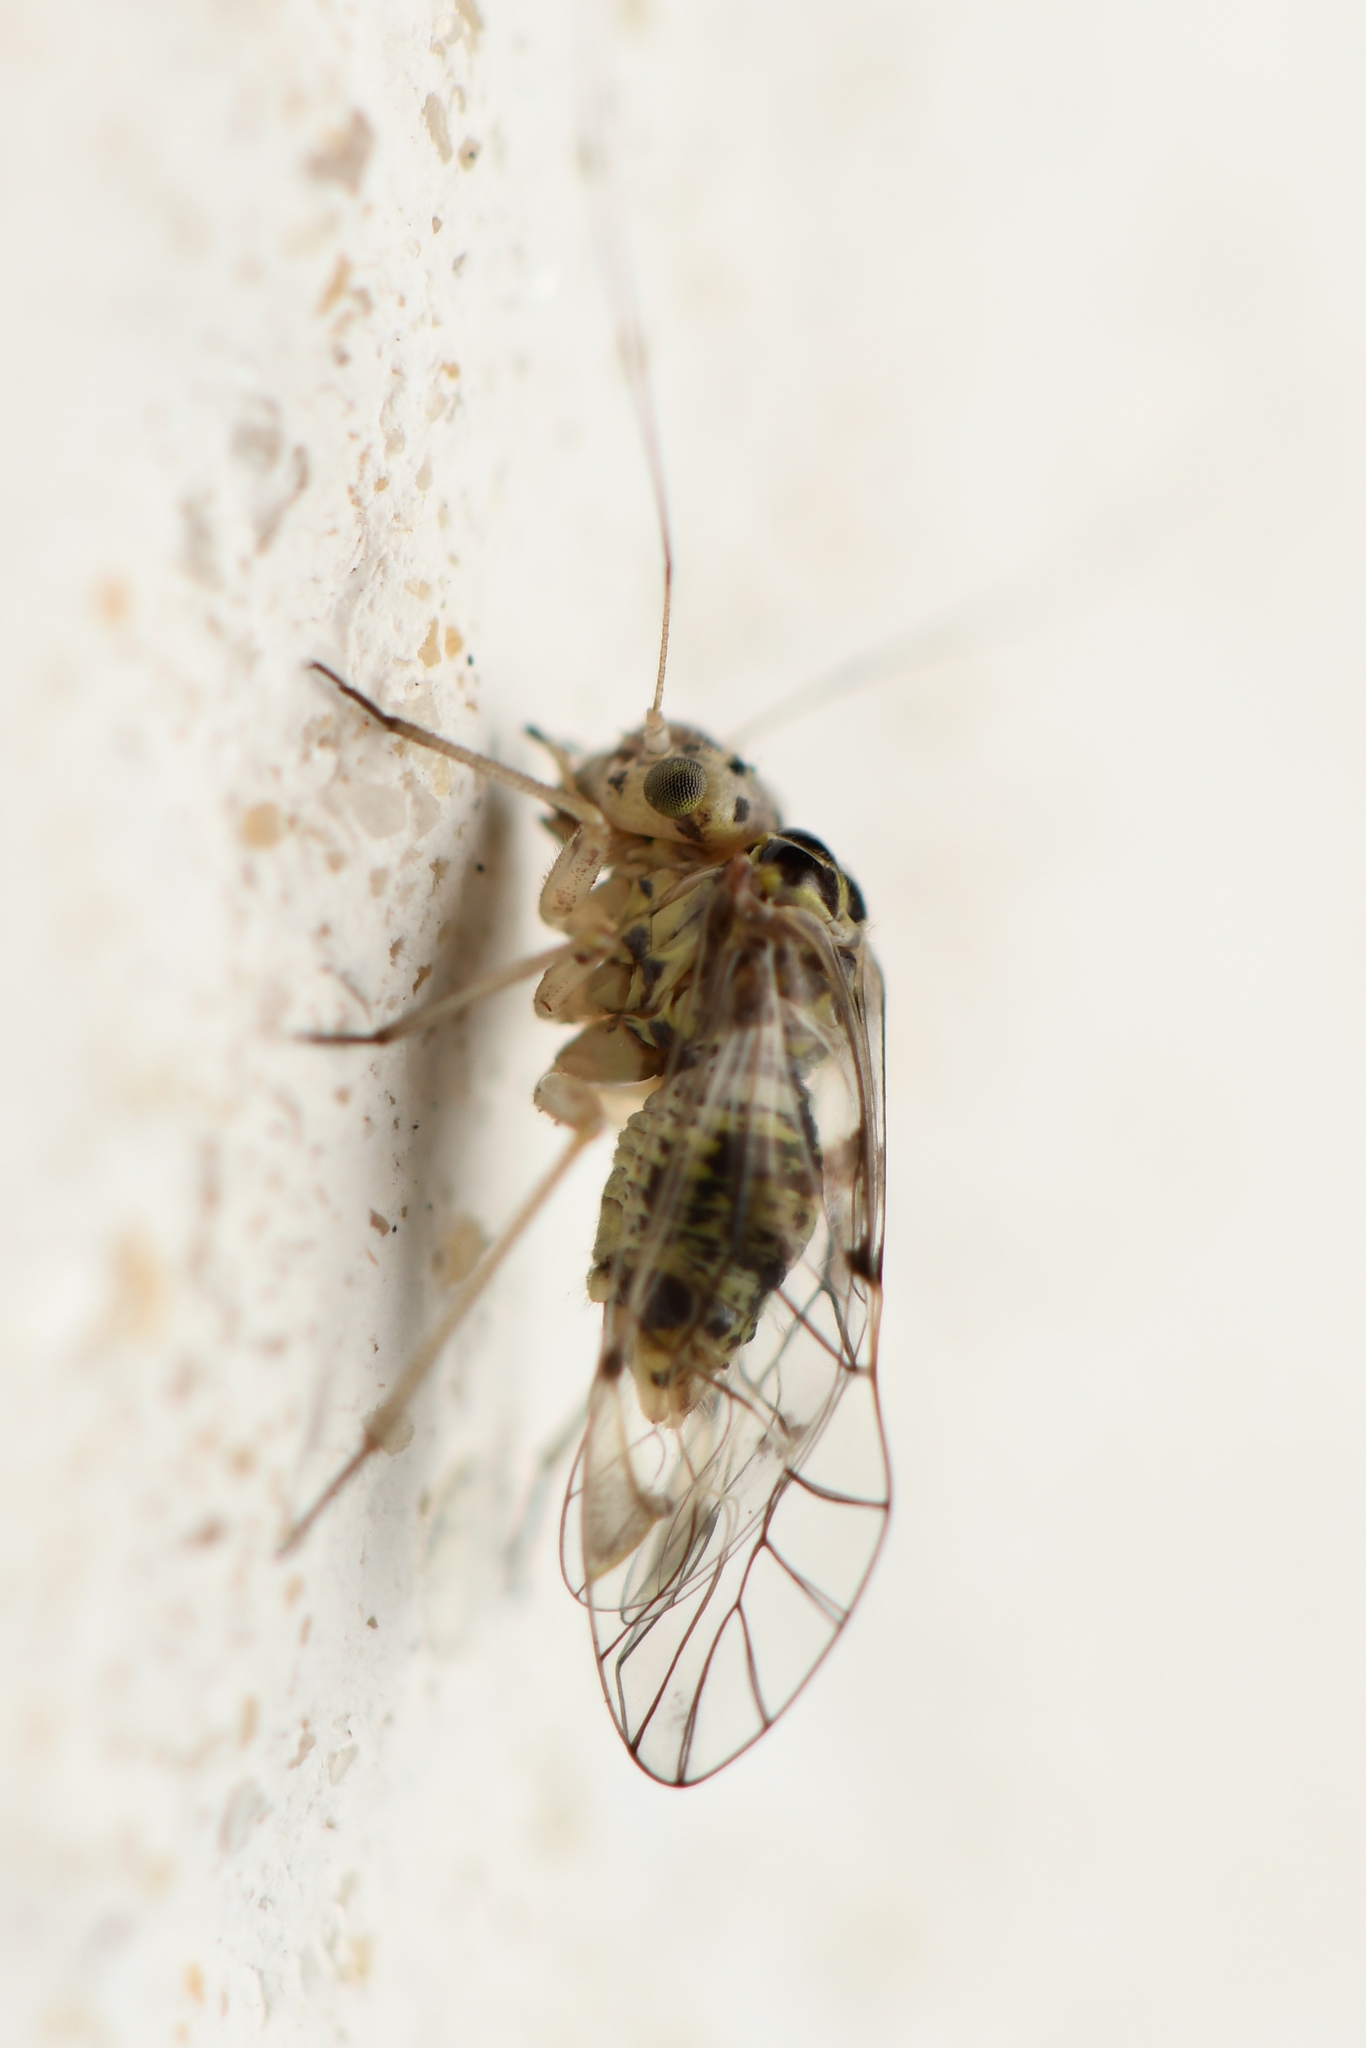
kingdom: Animalia
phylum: Arthropoda
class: Insecta
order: Psocodea
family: Psocidae
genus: Metylophorus
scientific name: Metylophorus novaescotiae
